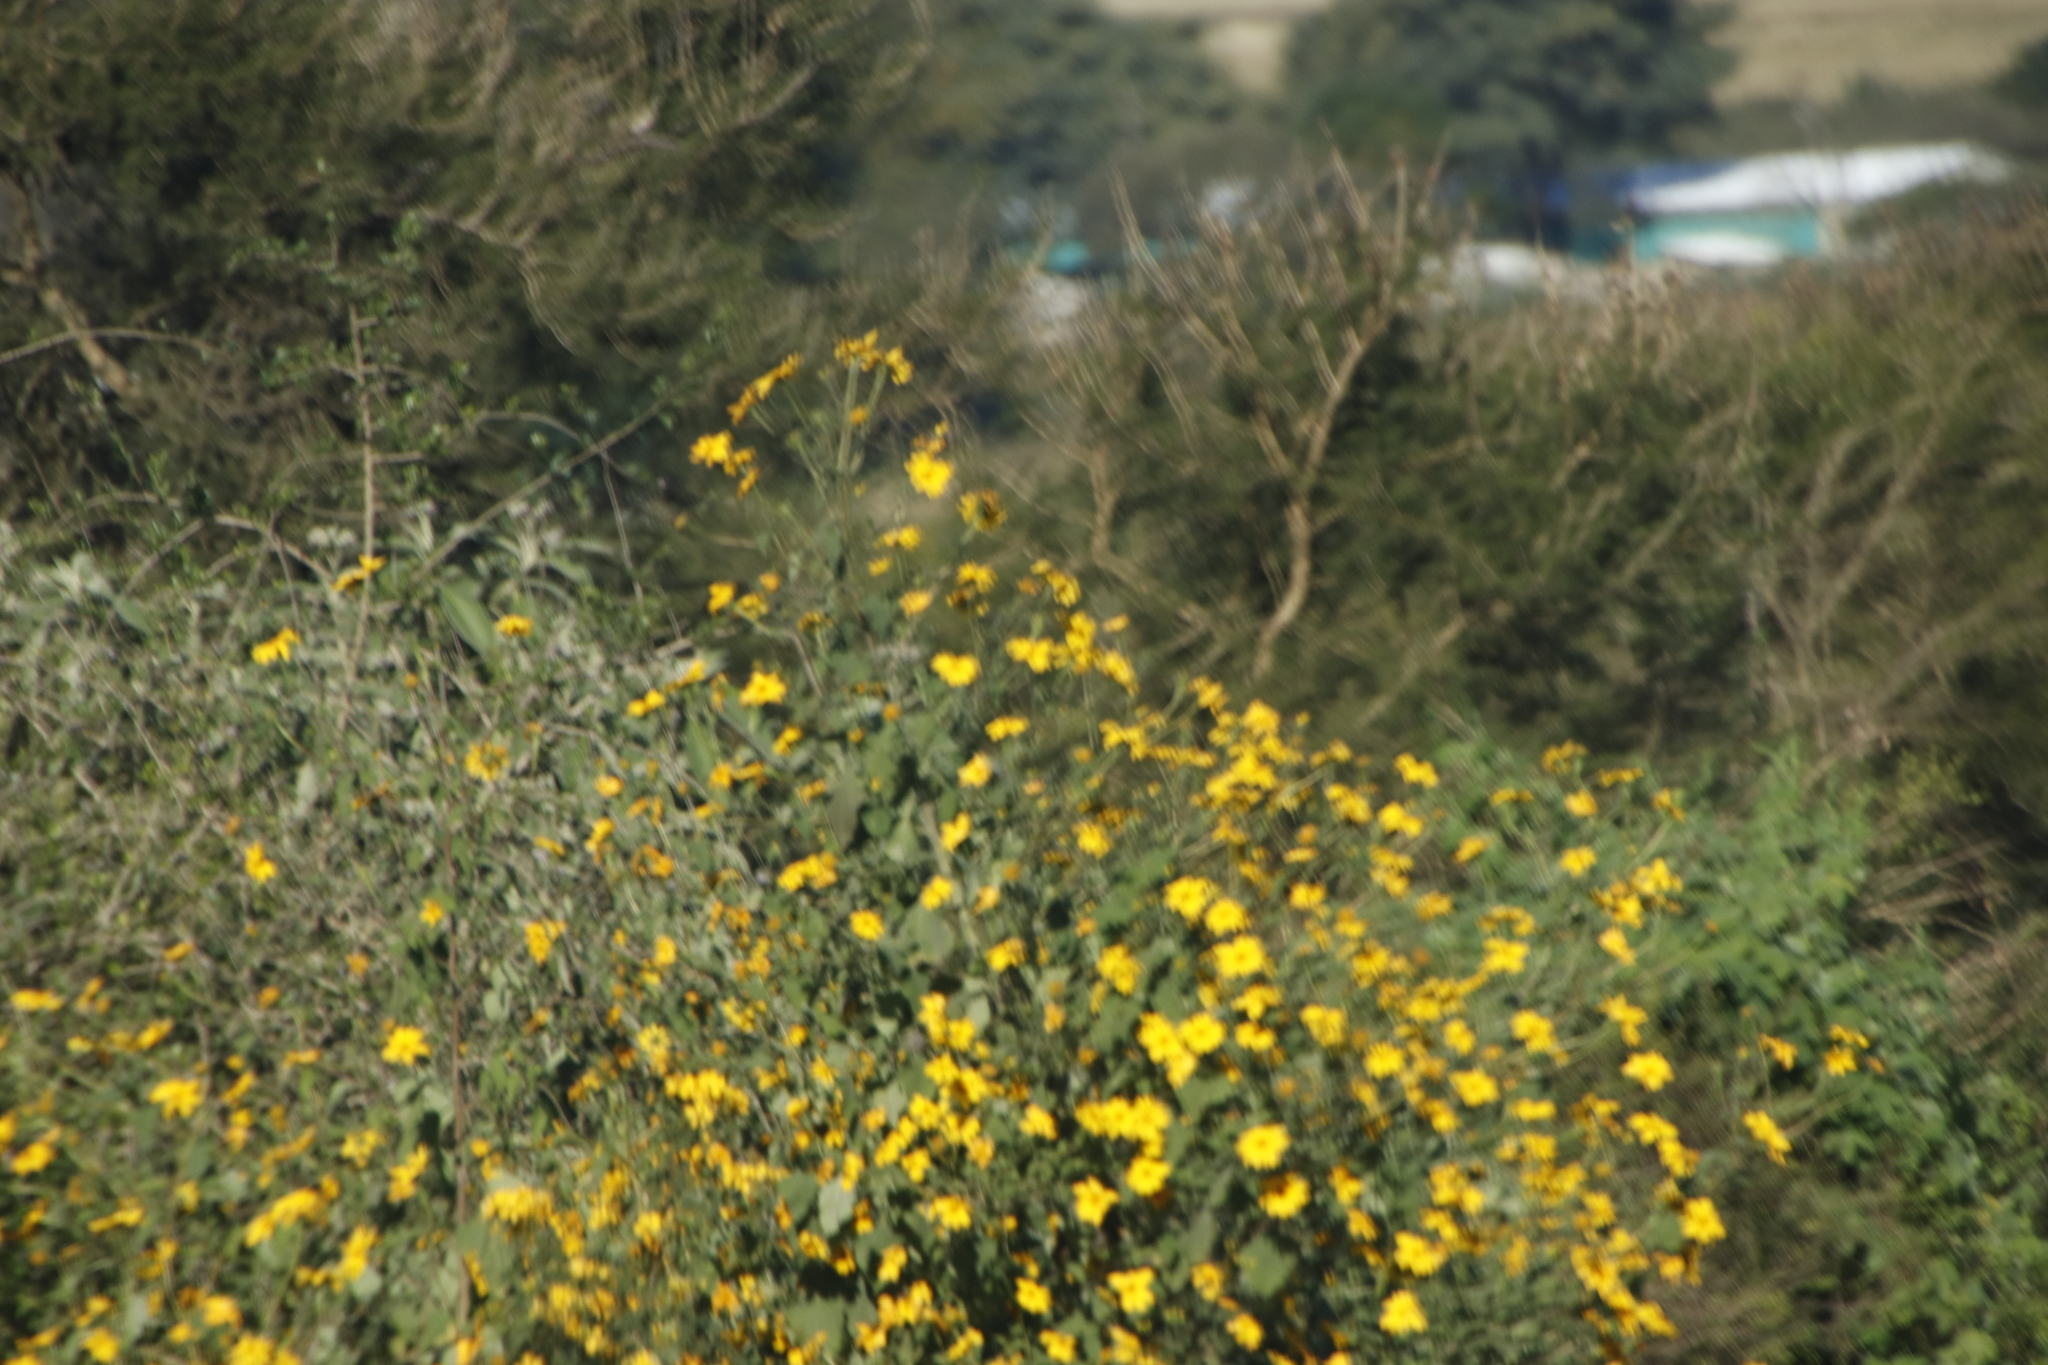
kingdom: Plantae
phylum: Tracheophyta
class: Magnoliopsida
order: Asterales
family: Asteraceae
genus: Tithonia
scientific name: Tithonia diversifolia
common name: Tree marigold
